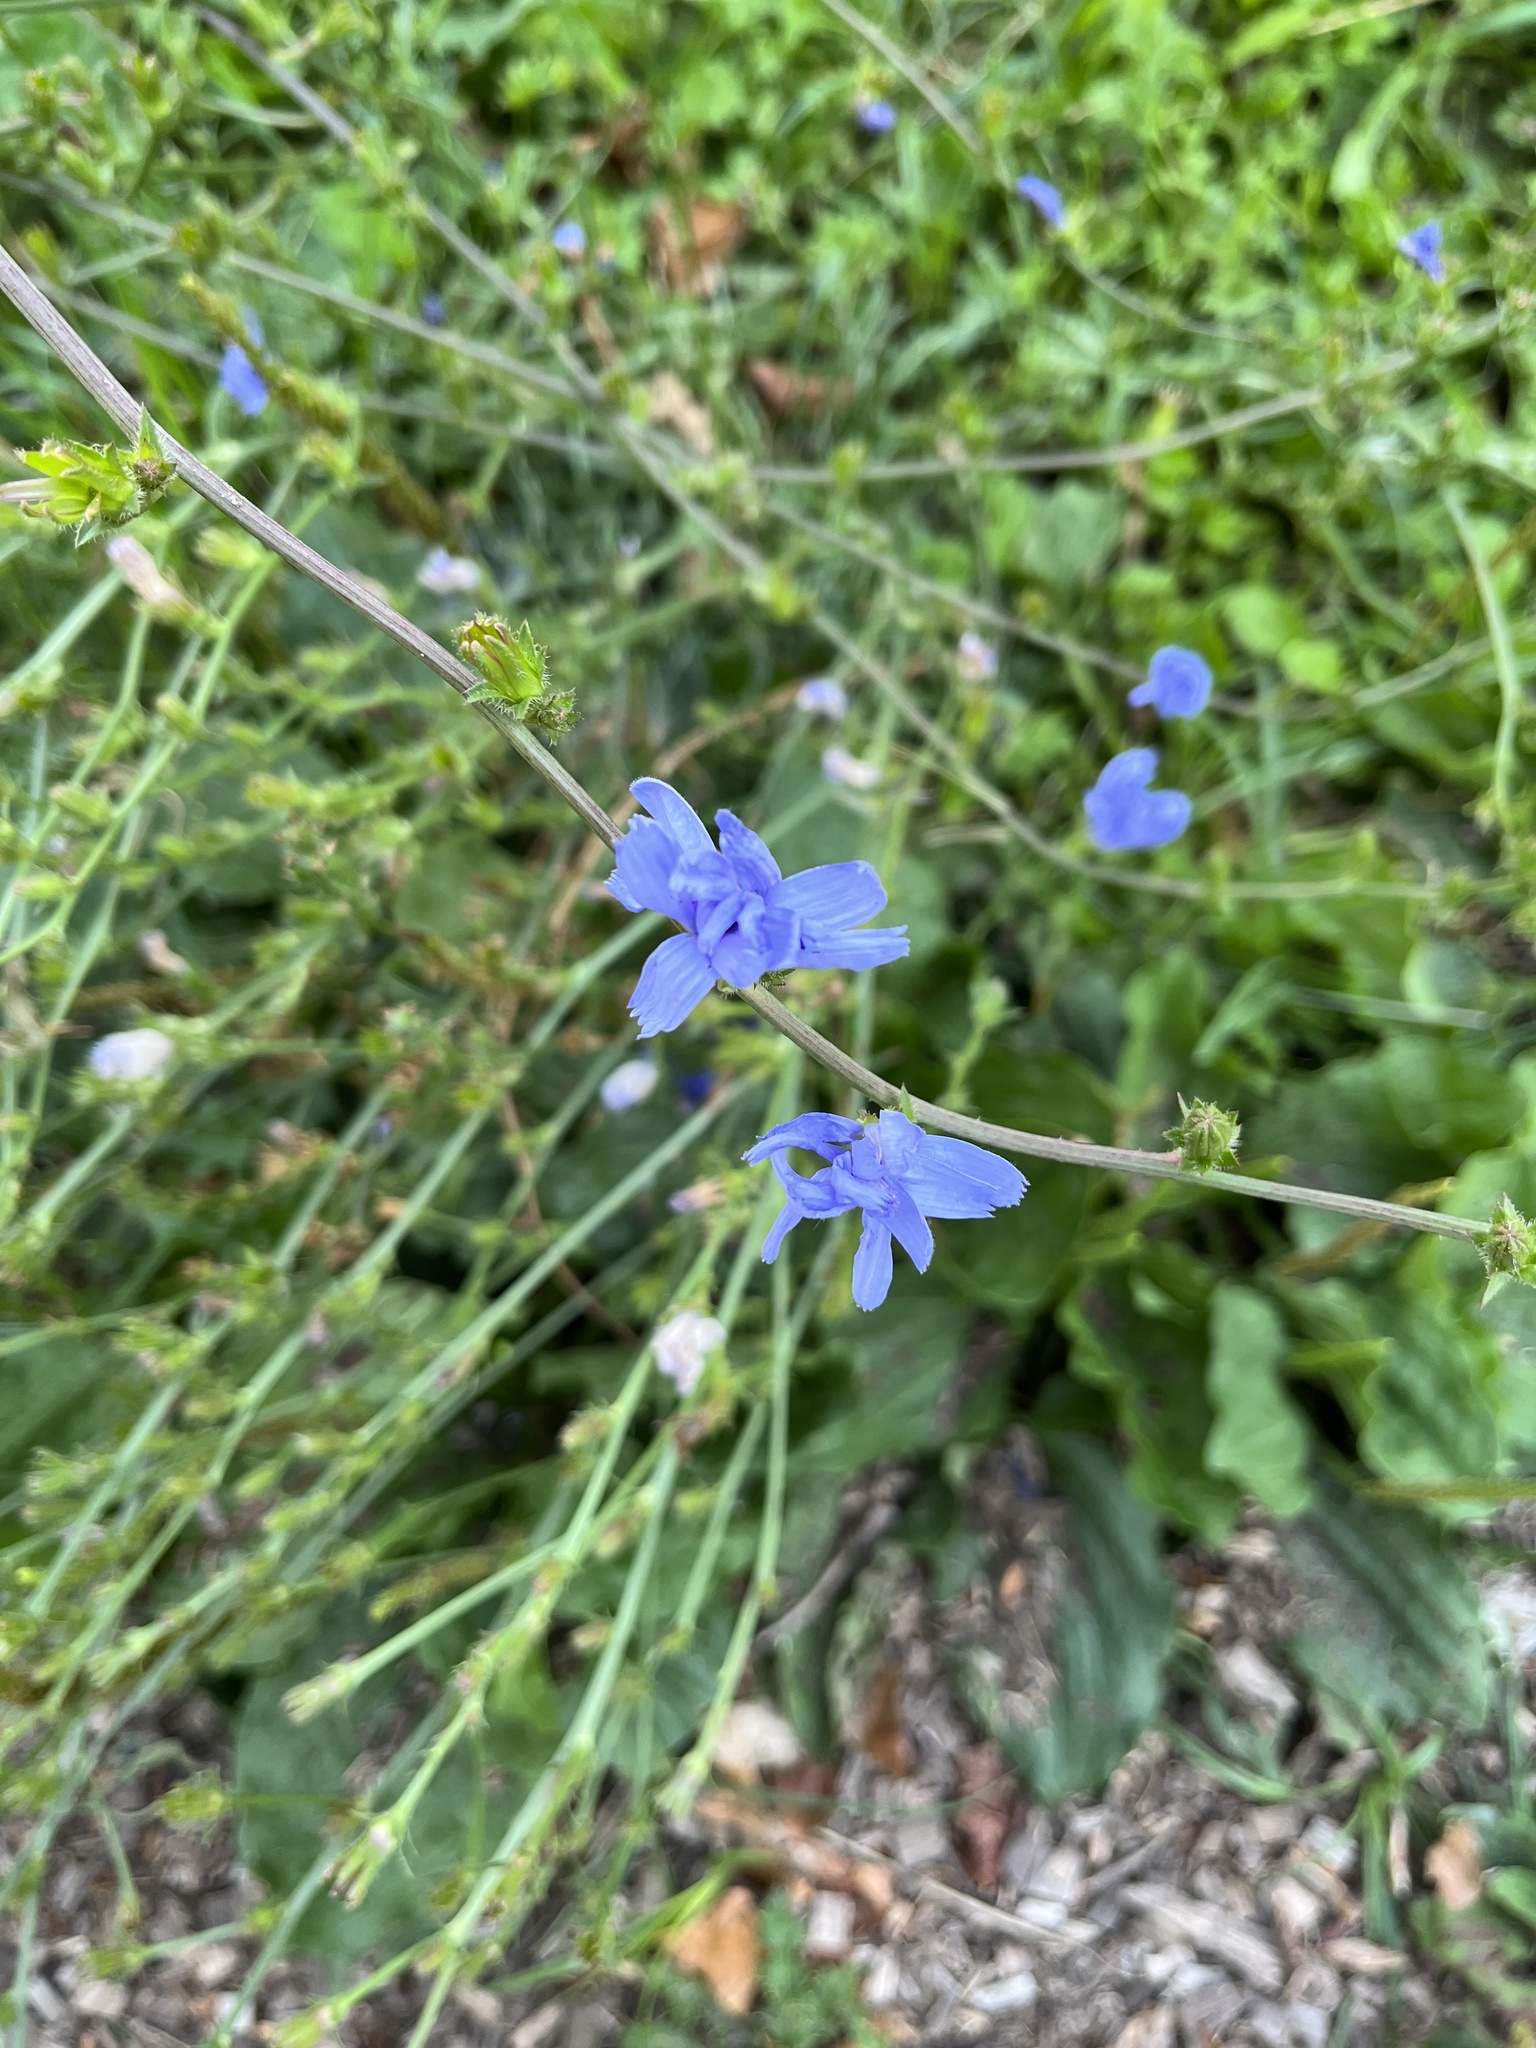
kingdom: Plantae
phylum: Tracheophyta
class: Magnoliopsida
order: Asterales
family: Asteraceae
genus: Cichorium
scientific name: Cichorium intybus
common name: Chicory
